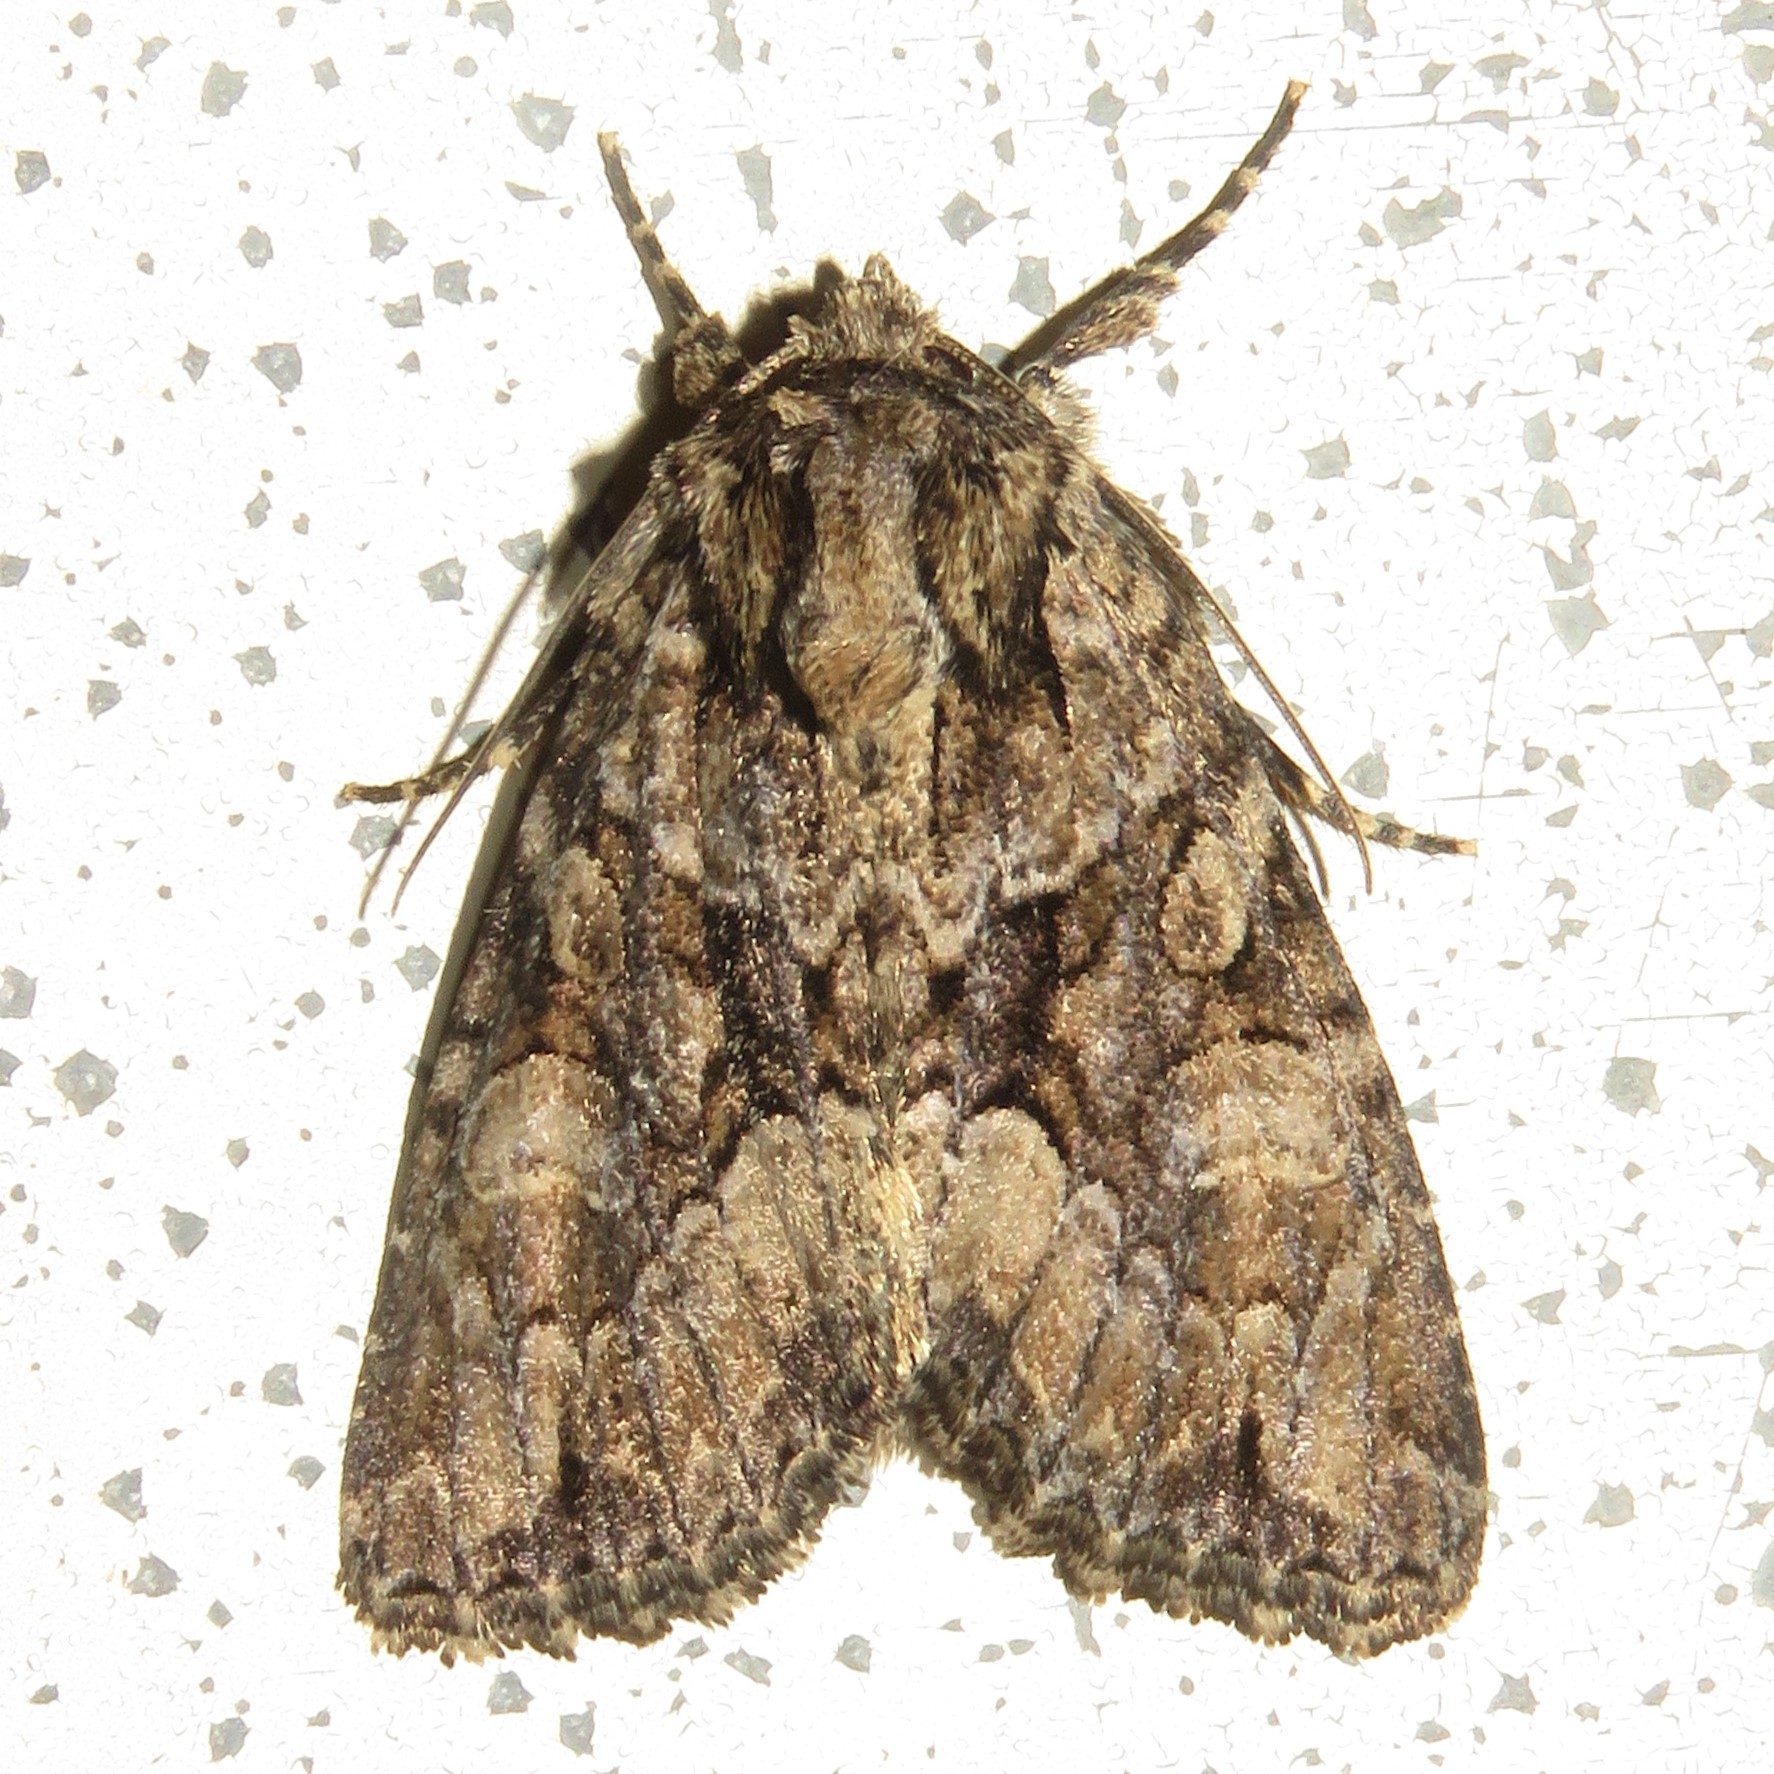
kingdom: Animalia
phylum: Arthropoda
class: Insecta
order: Lepidoptera
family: Noctuidae
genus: Platypolia
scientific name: Platypolia mactata
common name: Adorable brocade moth
